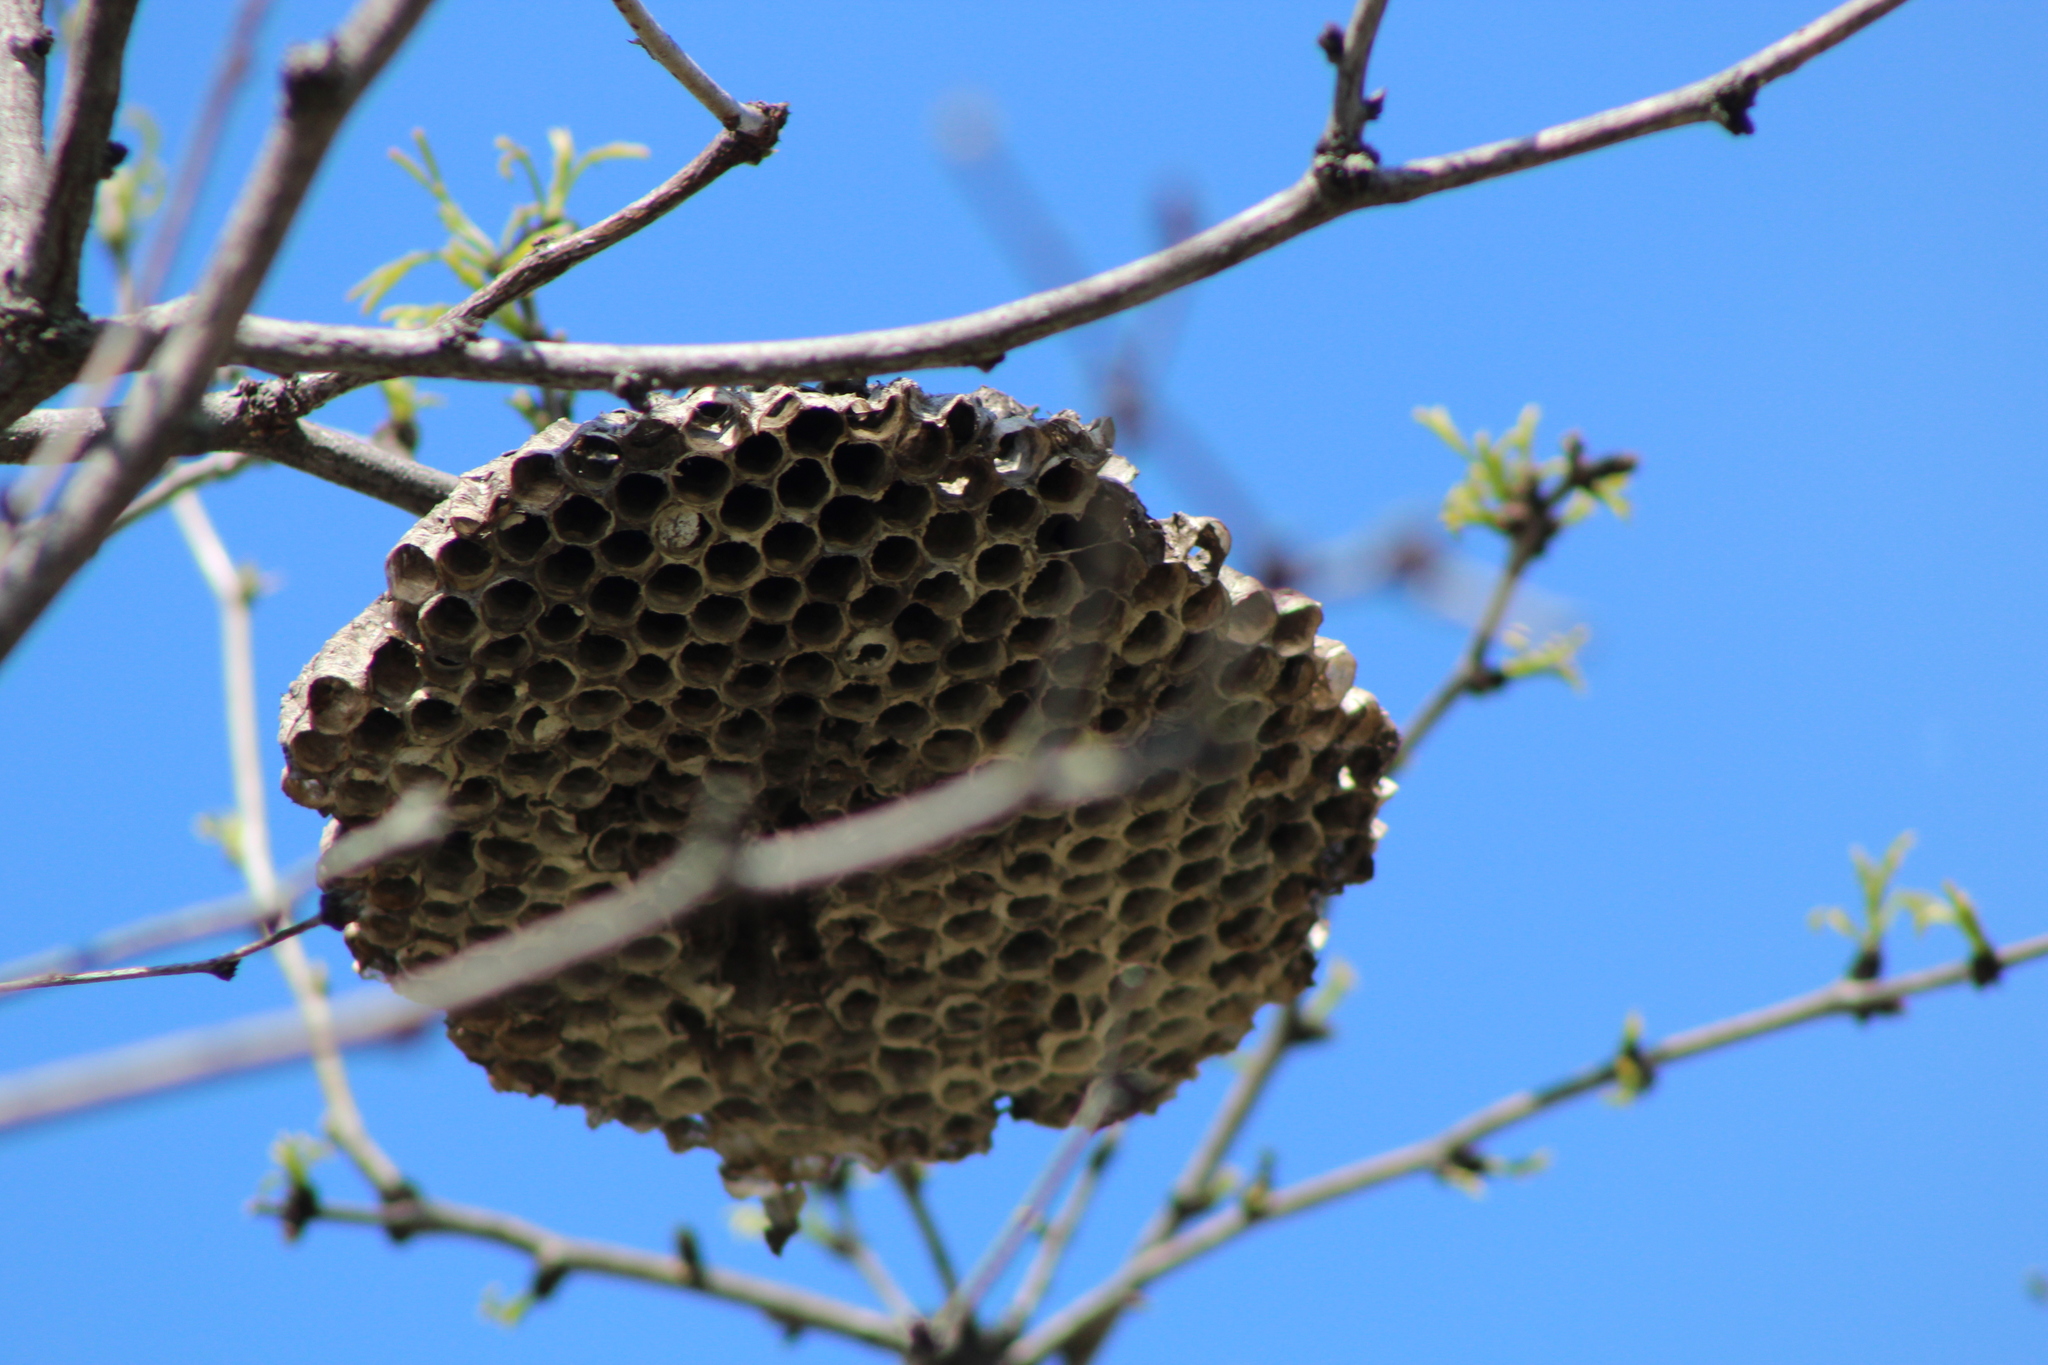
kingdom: Animalia
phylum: Arthropoda
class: Insecta
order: Hymenoptera
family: Vespidae
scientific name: Vespidae
